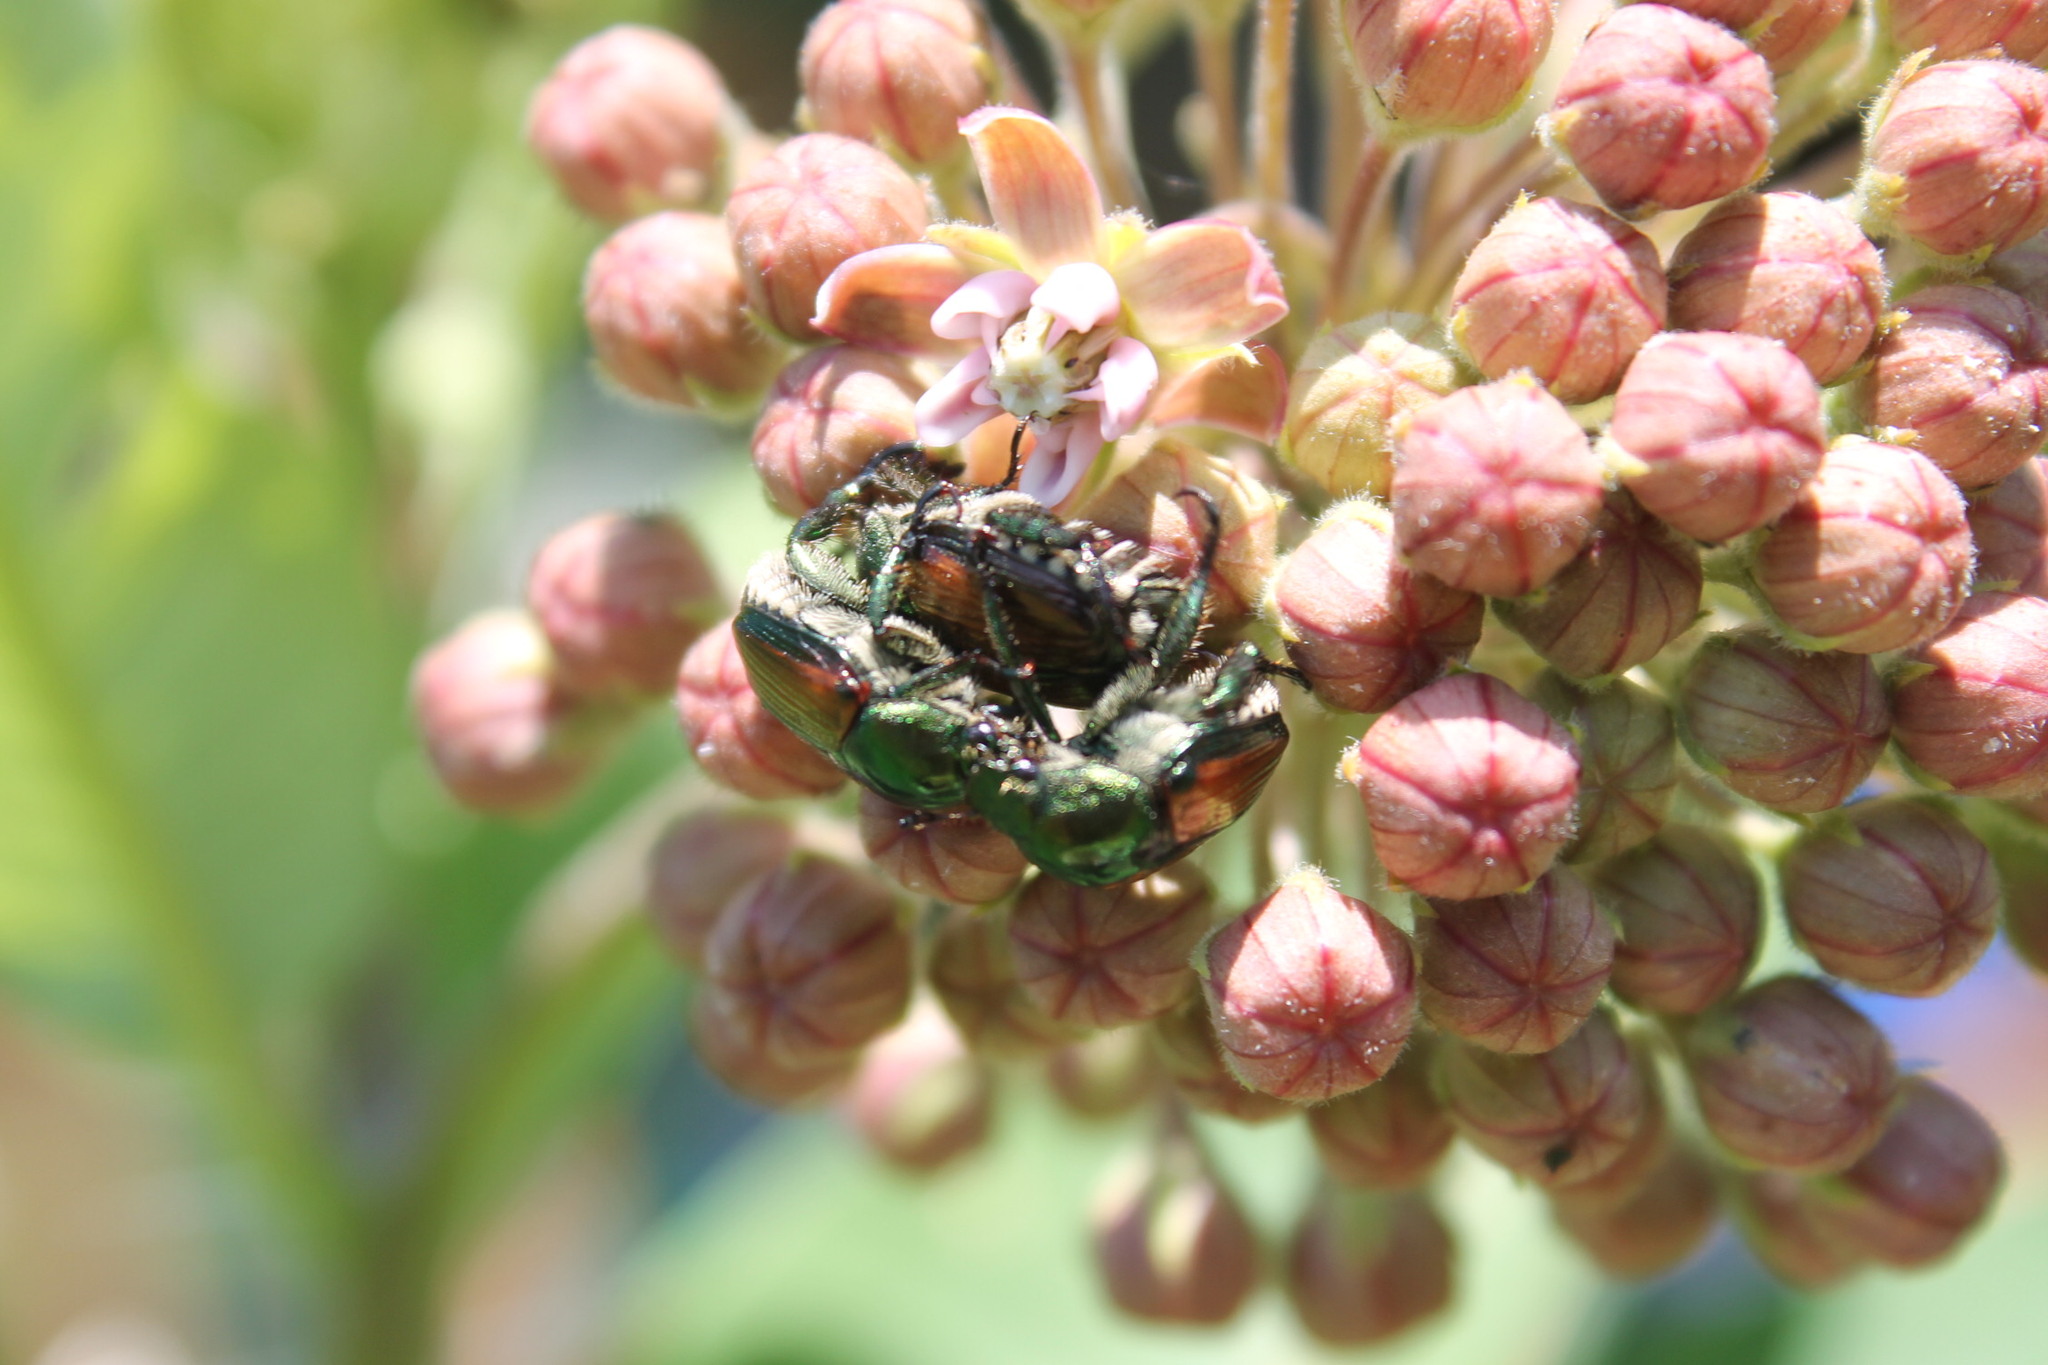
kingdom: Animalia
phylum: Arthropoda
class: Insecta
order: Coleoptera
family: Scarabaeidae
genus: Popillia
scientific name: Popillia japonica
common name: Japanese beetle
